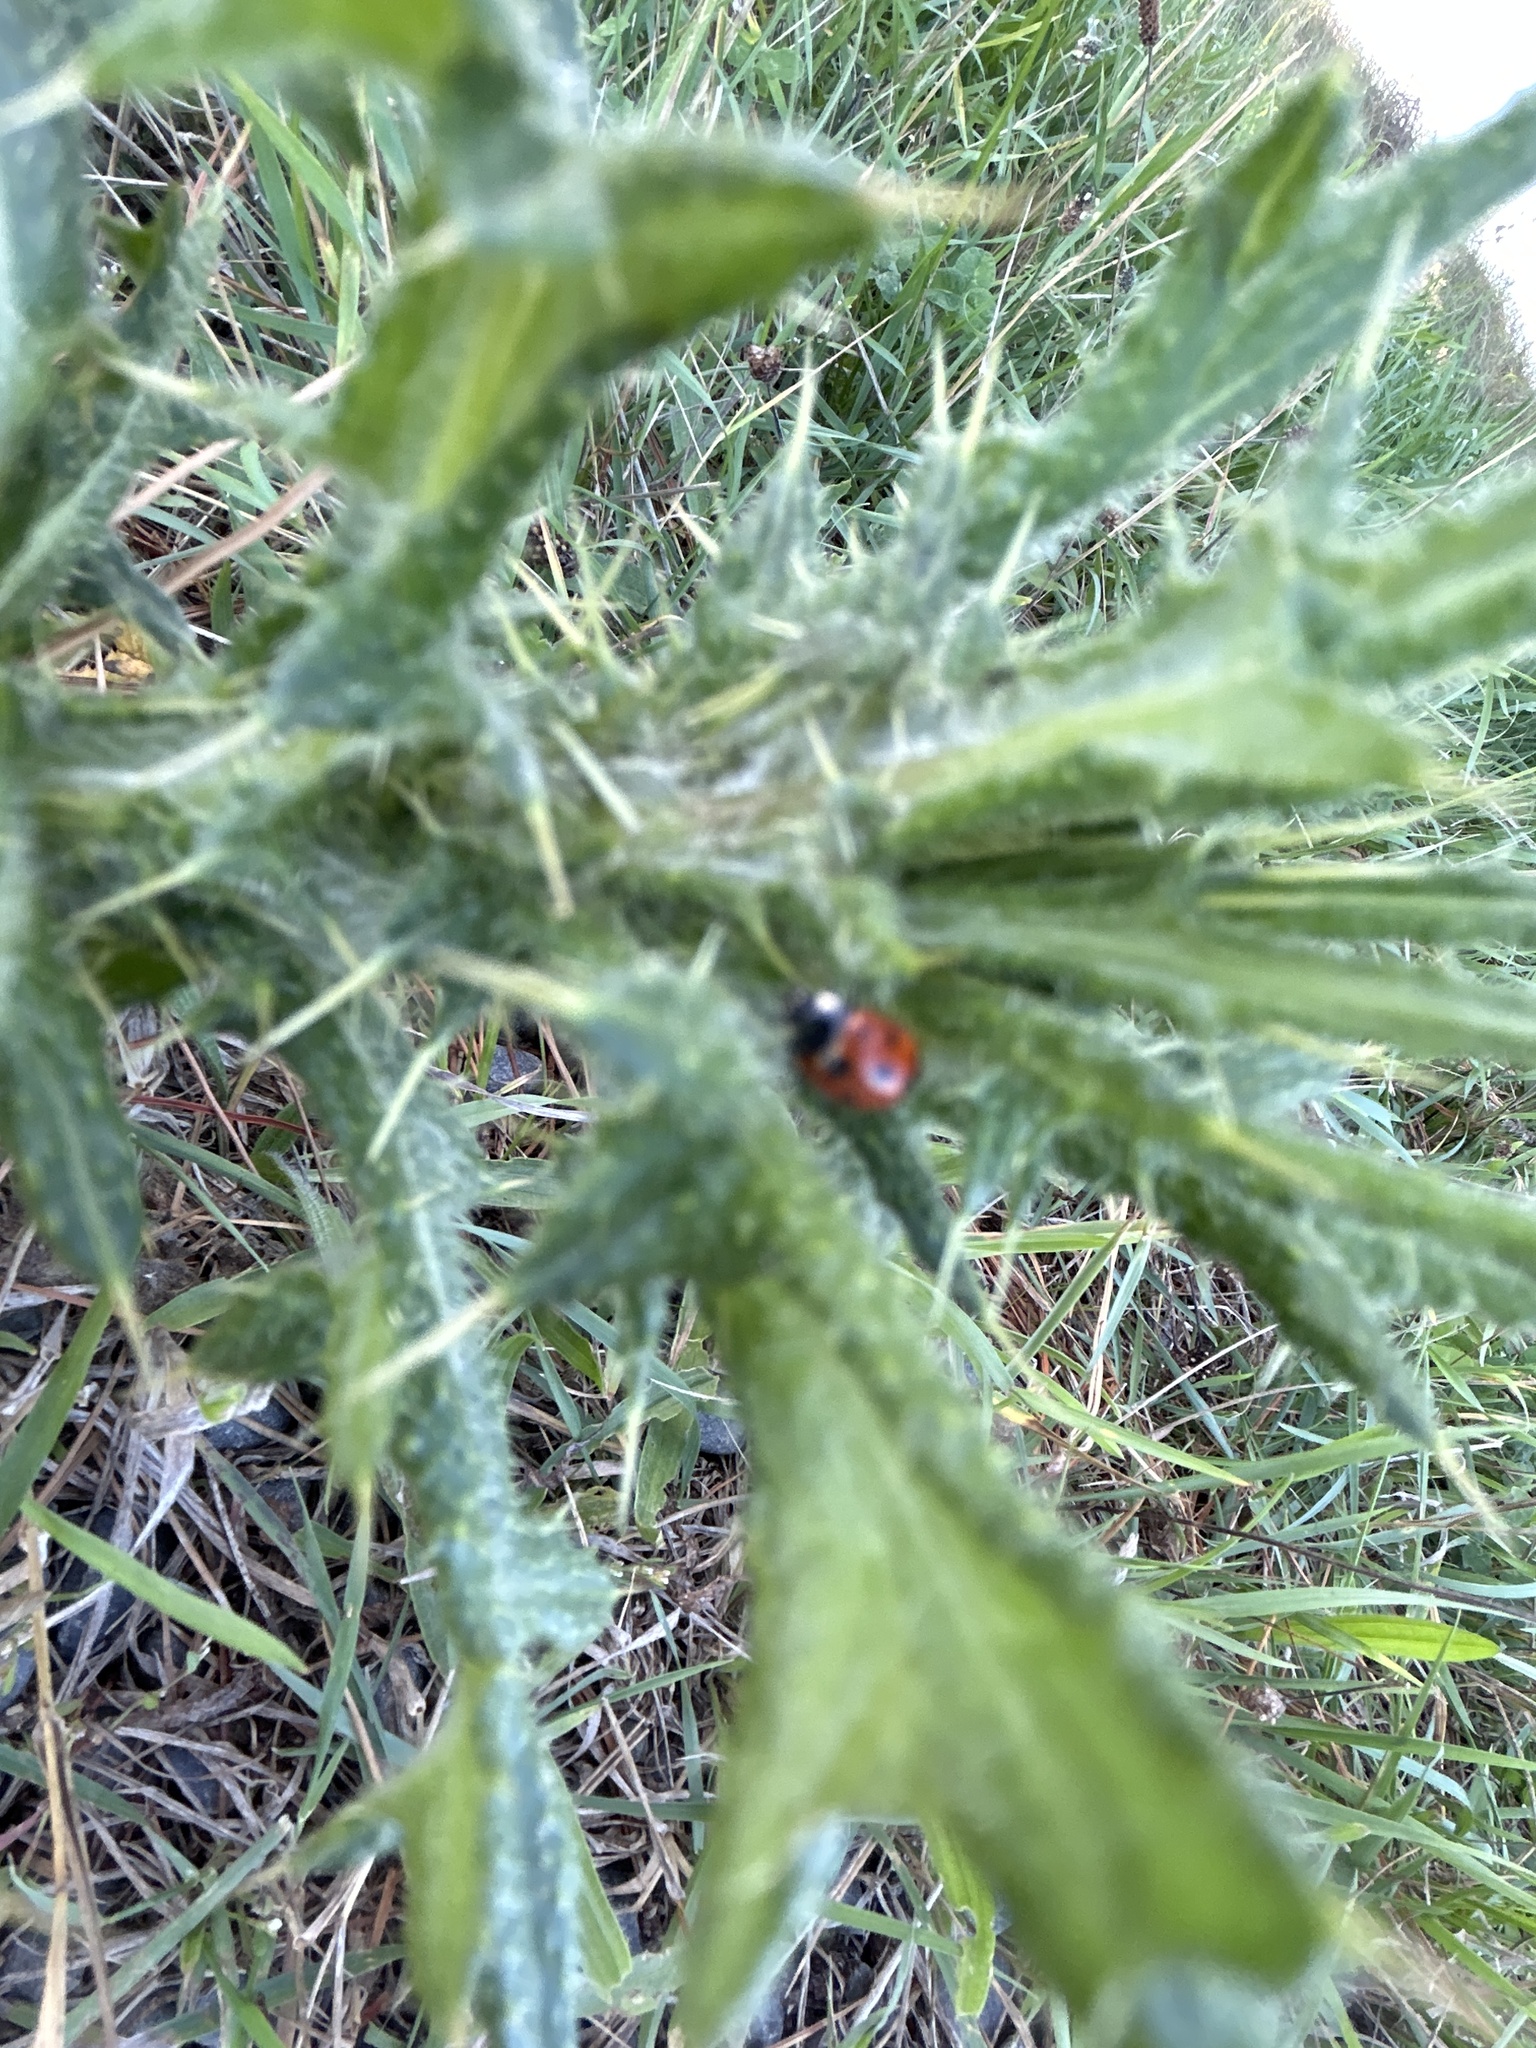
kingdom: Animalia
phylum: Arthropoda
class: Insecta
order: Coleoptera
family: Coccinellidae
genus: Coccinella
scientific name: Coccinella undecimpunctata
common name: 11-spot ladybird
